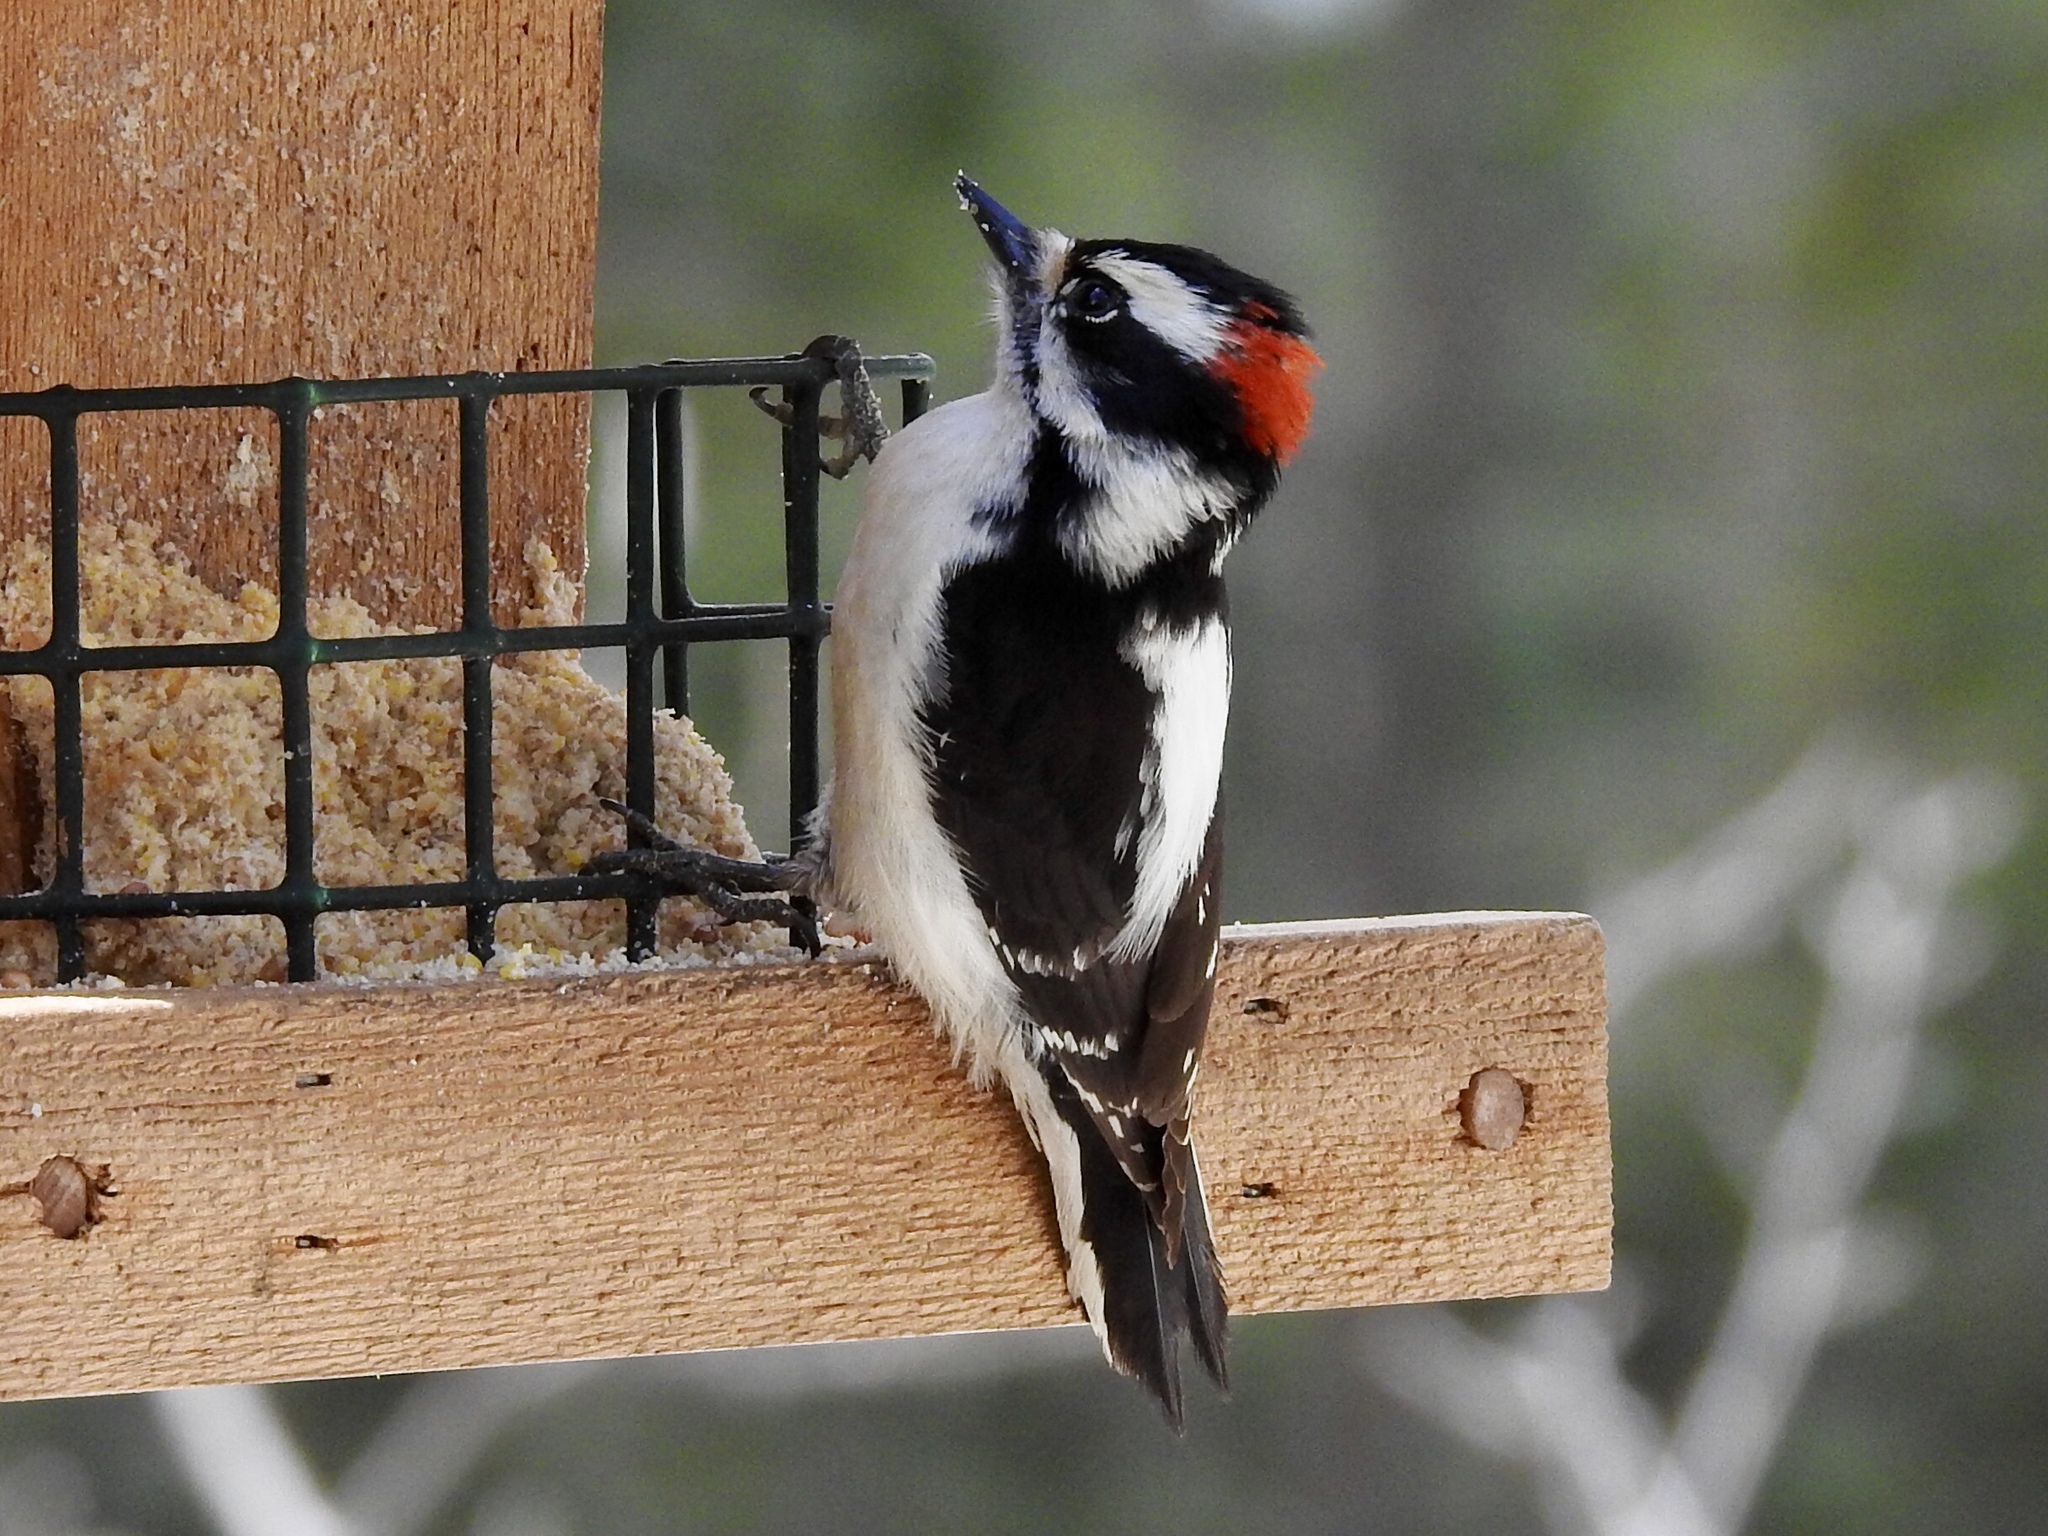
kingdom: Animalia
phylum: Chordata
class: Aves
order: Piciformes
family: Picidae
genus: Dryobates
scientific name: Dryobates pubescens
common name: Downy woodpecker
